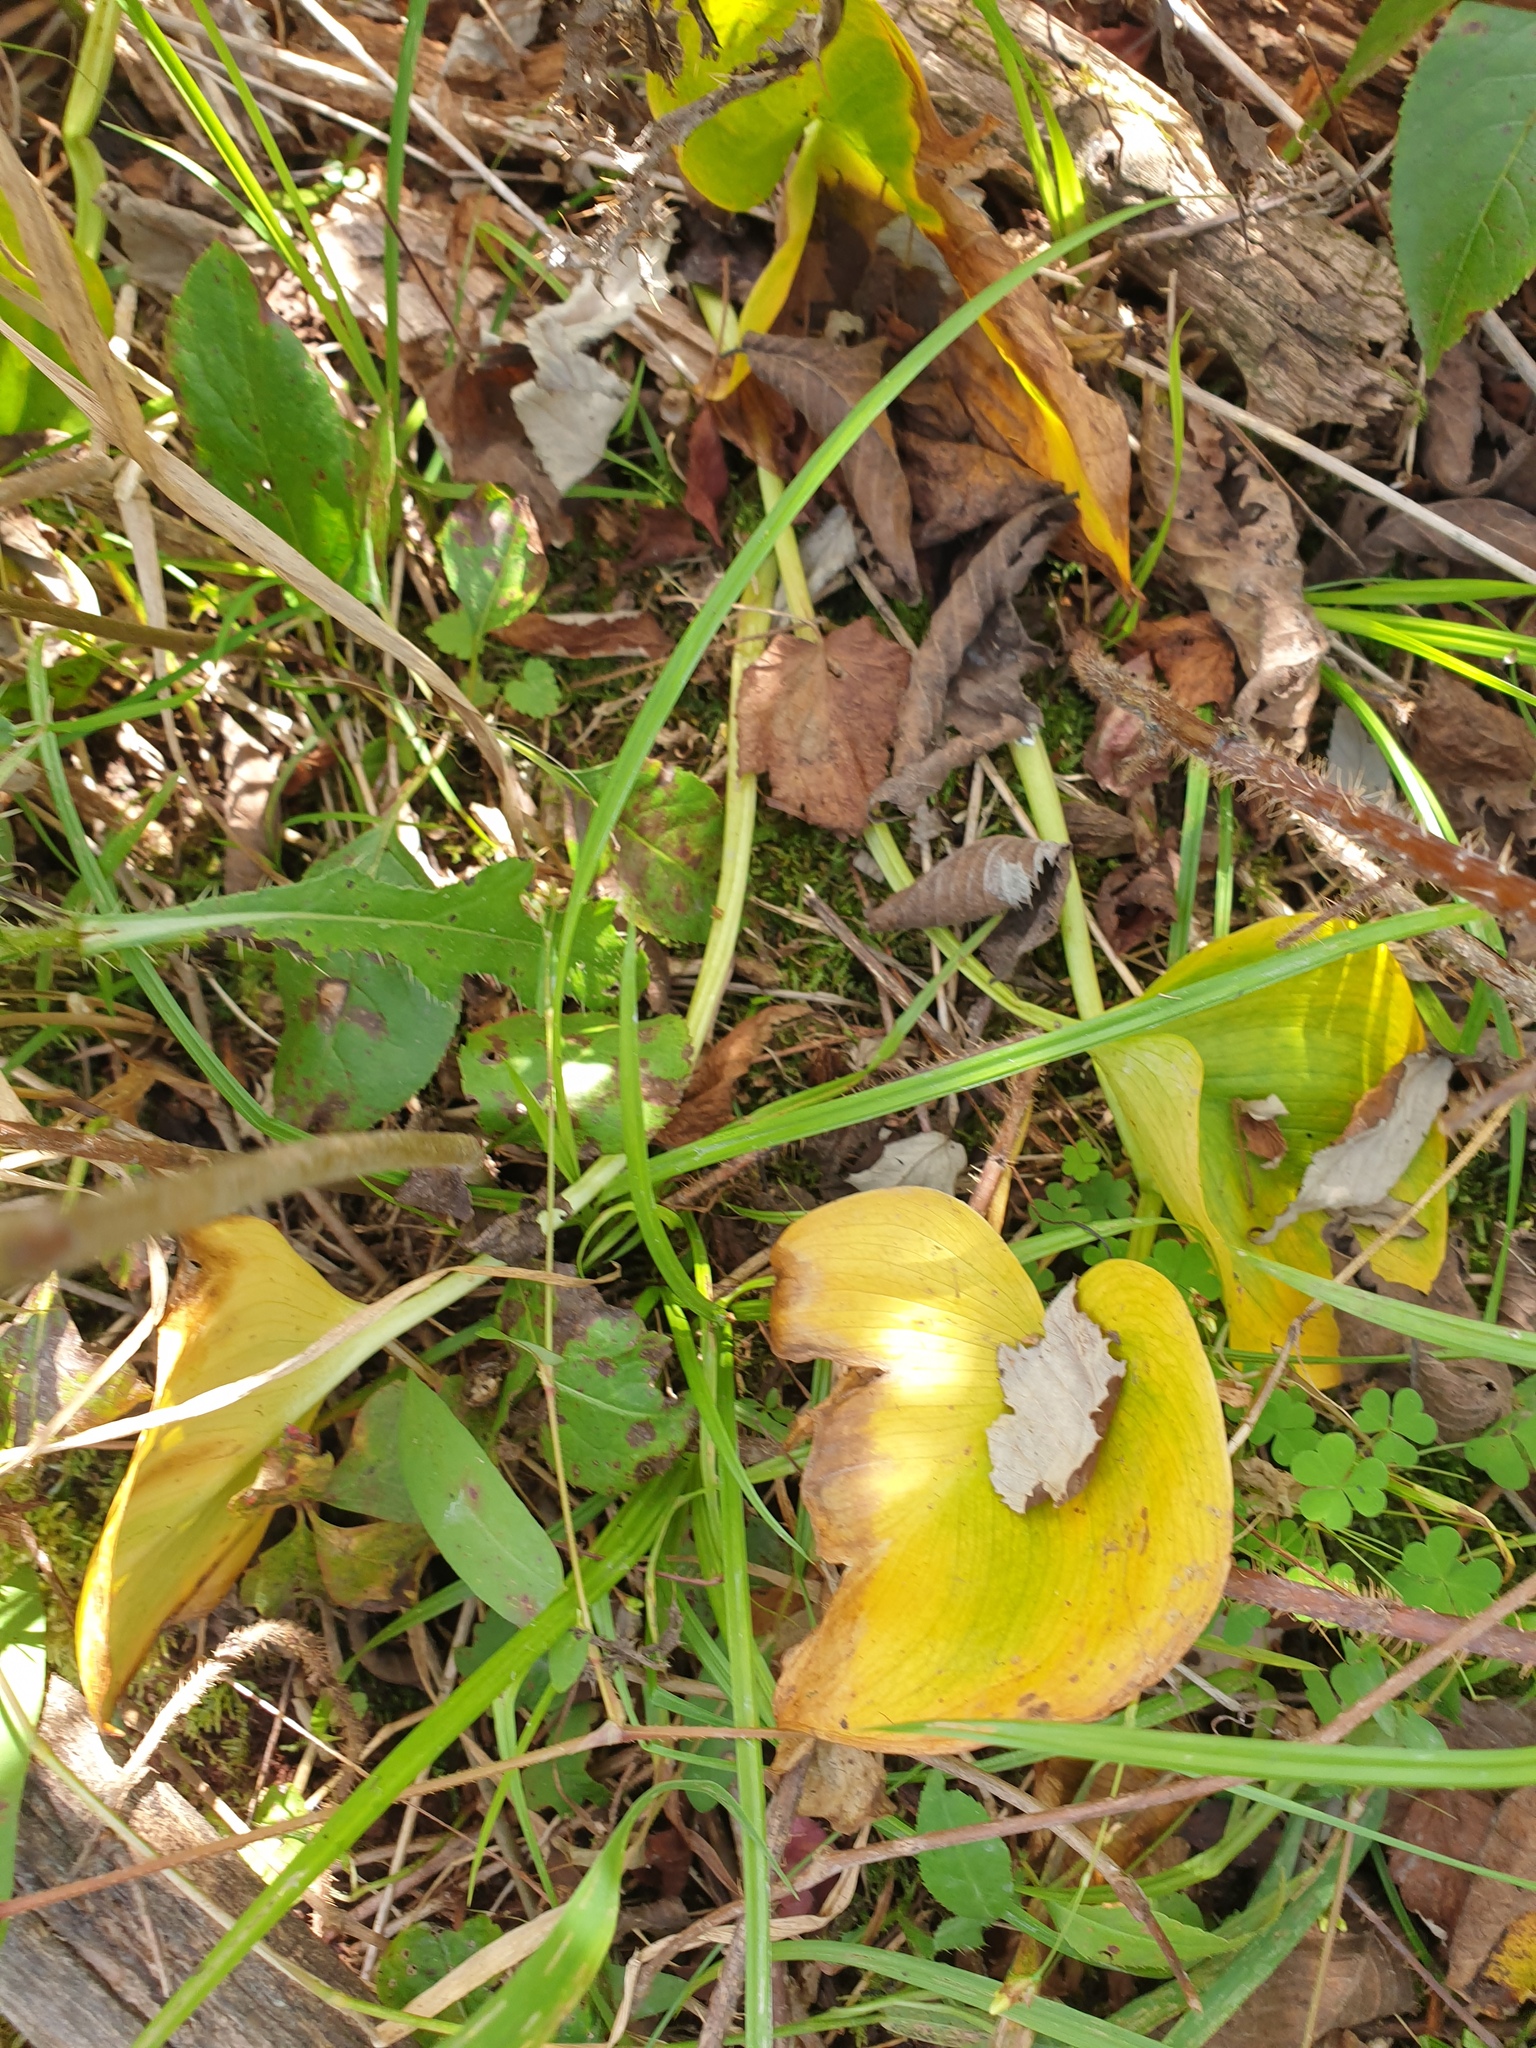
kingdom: Plantae
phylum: Tracheophyta
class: Liliopsida
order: Alismatales
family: Araceae
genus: Calla
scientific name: Calla palustris
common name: Bog arum
